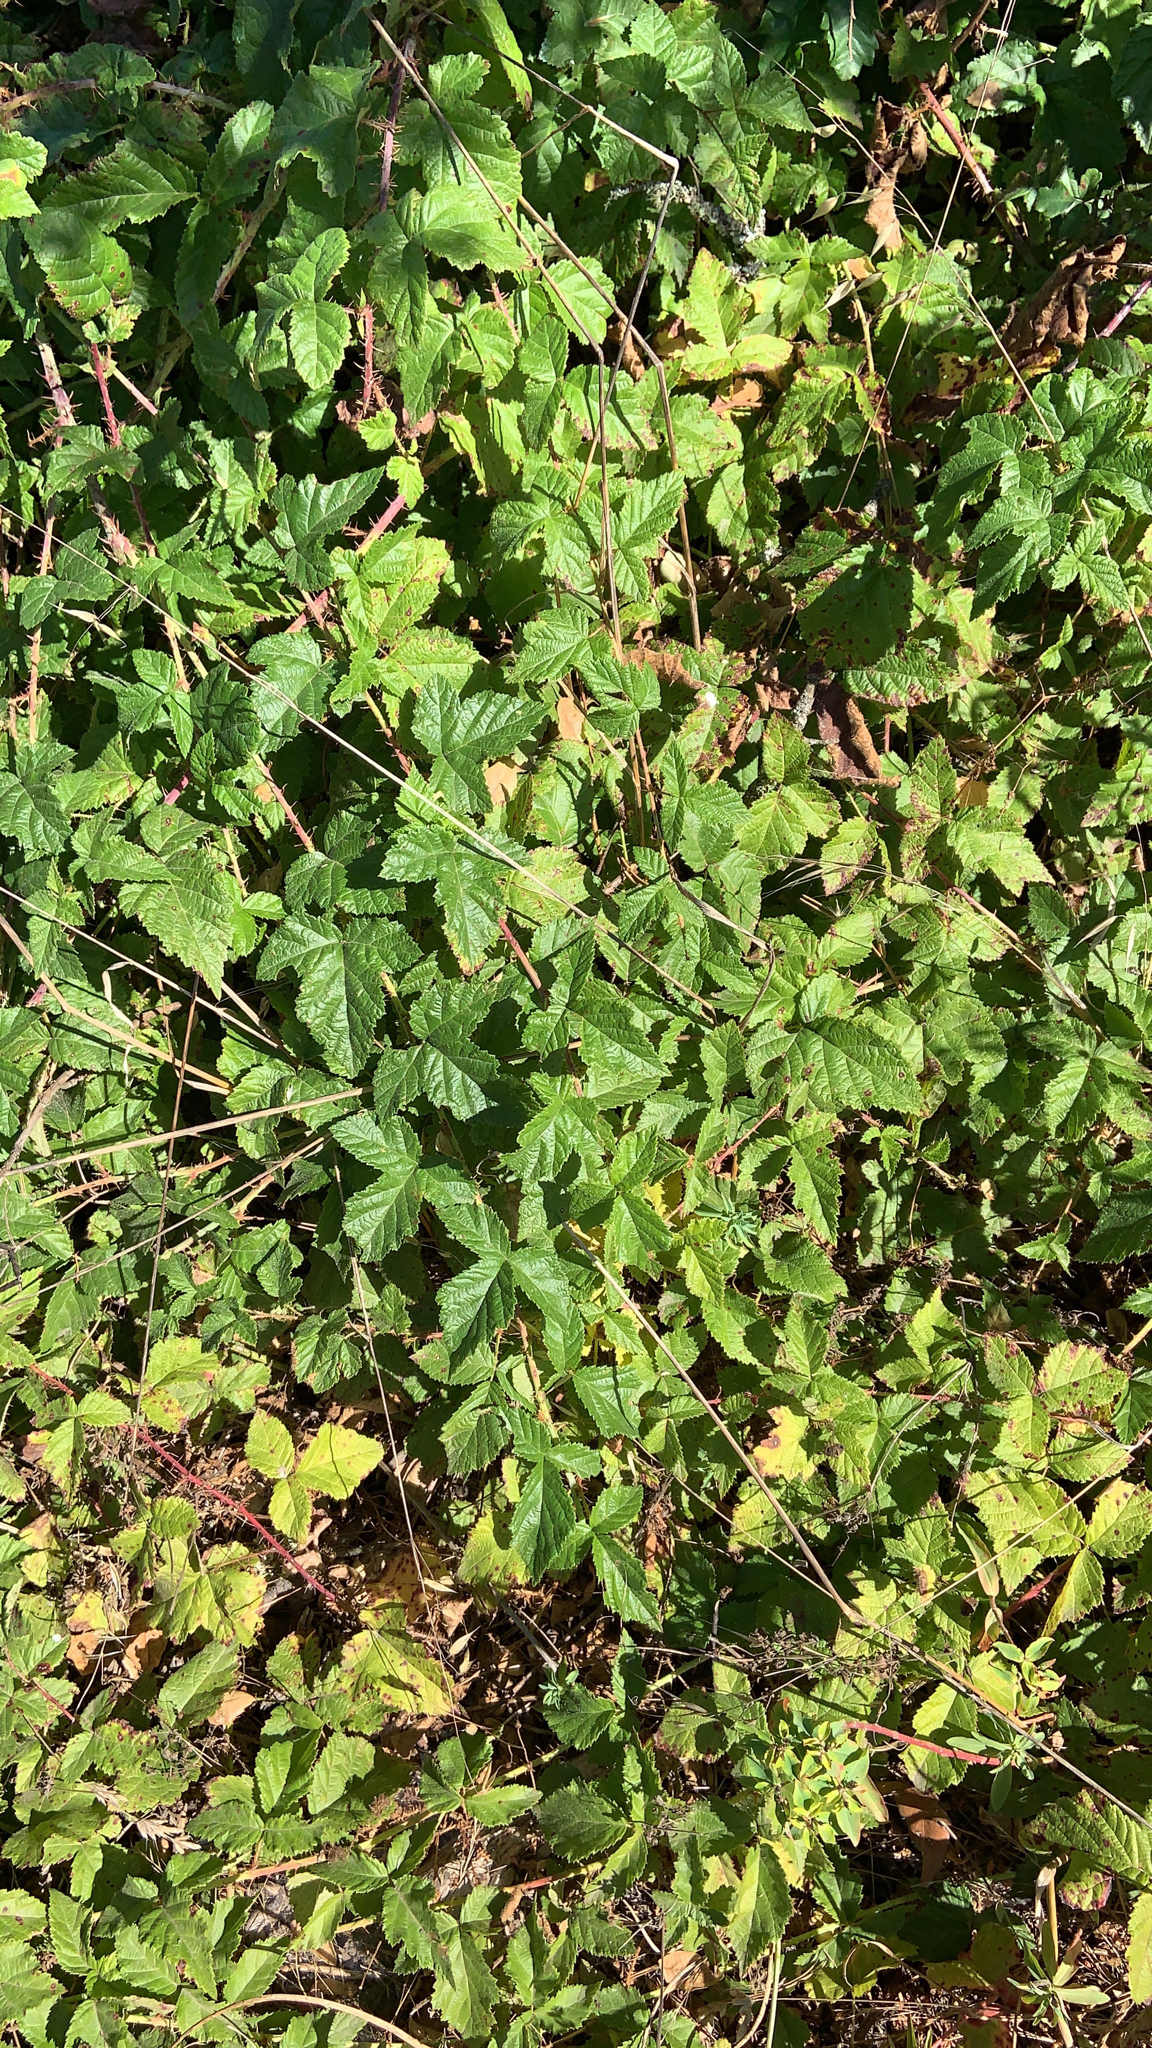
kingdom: Plantae
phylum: Tracheophyta
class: Magnoliopsida
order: Rosales
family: Rosaceae
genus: Rubus
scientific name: Rubus ursinus
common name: Pacific blackberry
